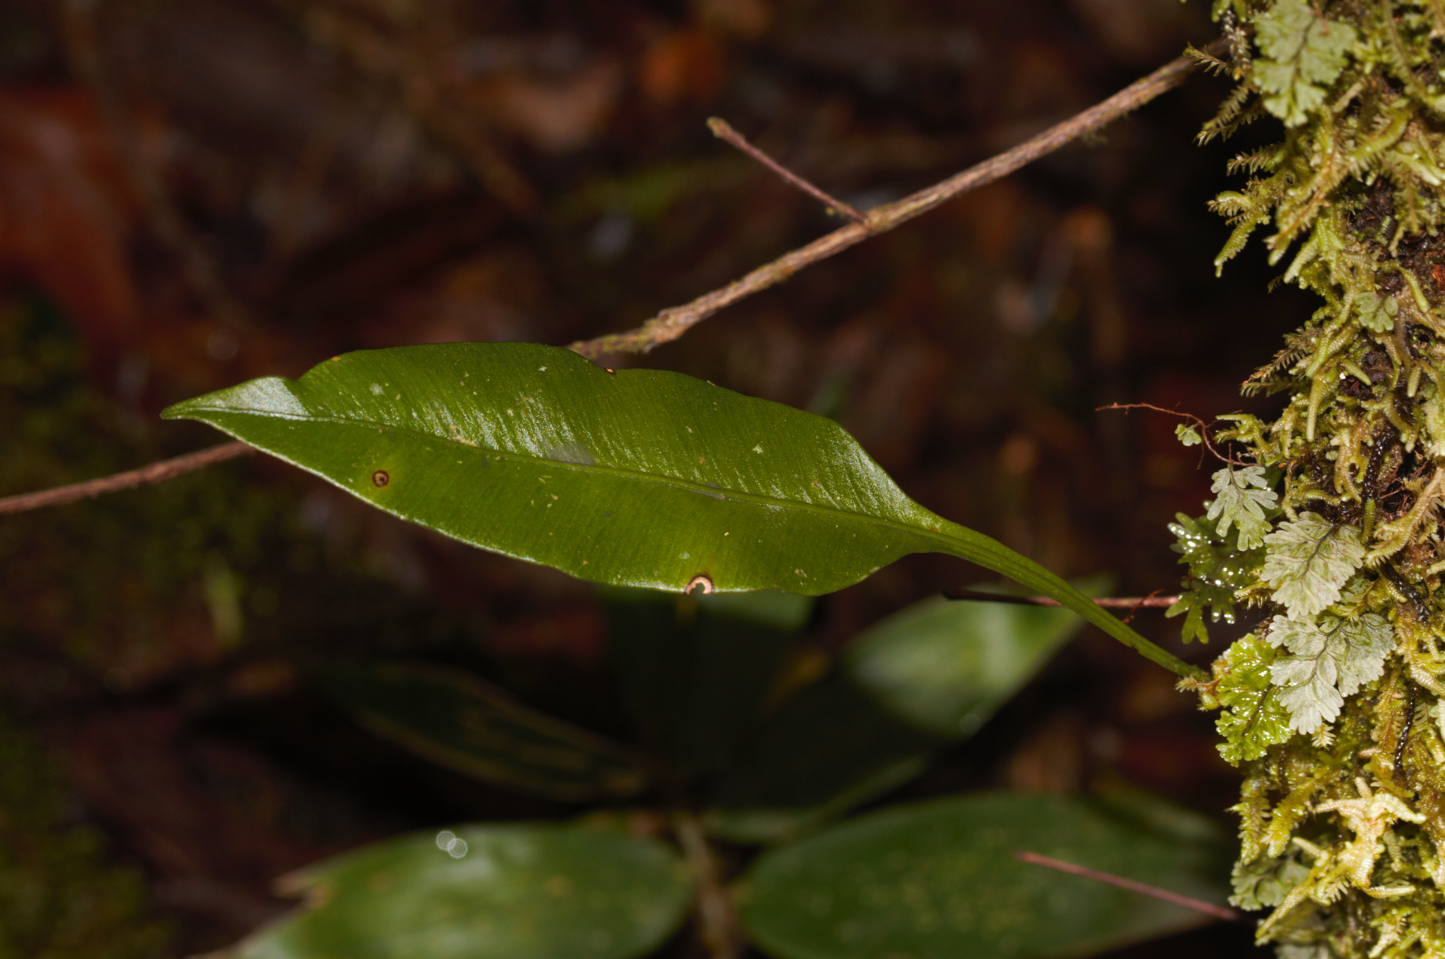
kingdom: Plantae
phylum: Tracheophyta
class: Polypodiopsida
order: Polypodiales
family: Dryopteridaceae
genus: Elaphoglossum
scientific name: Elaphoglossum pteropus
